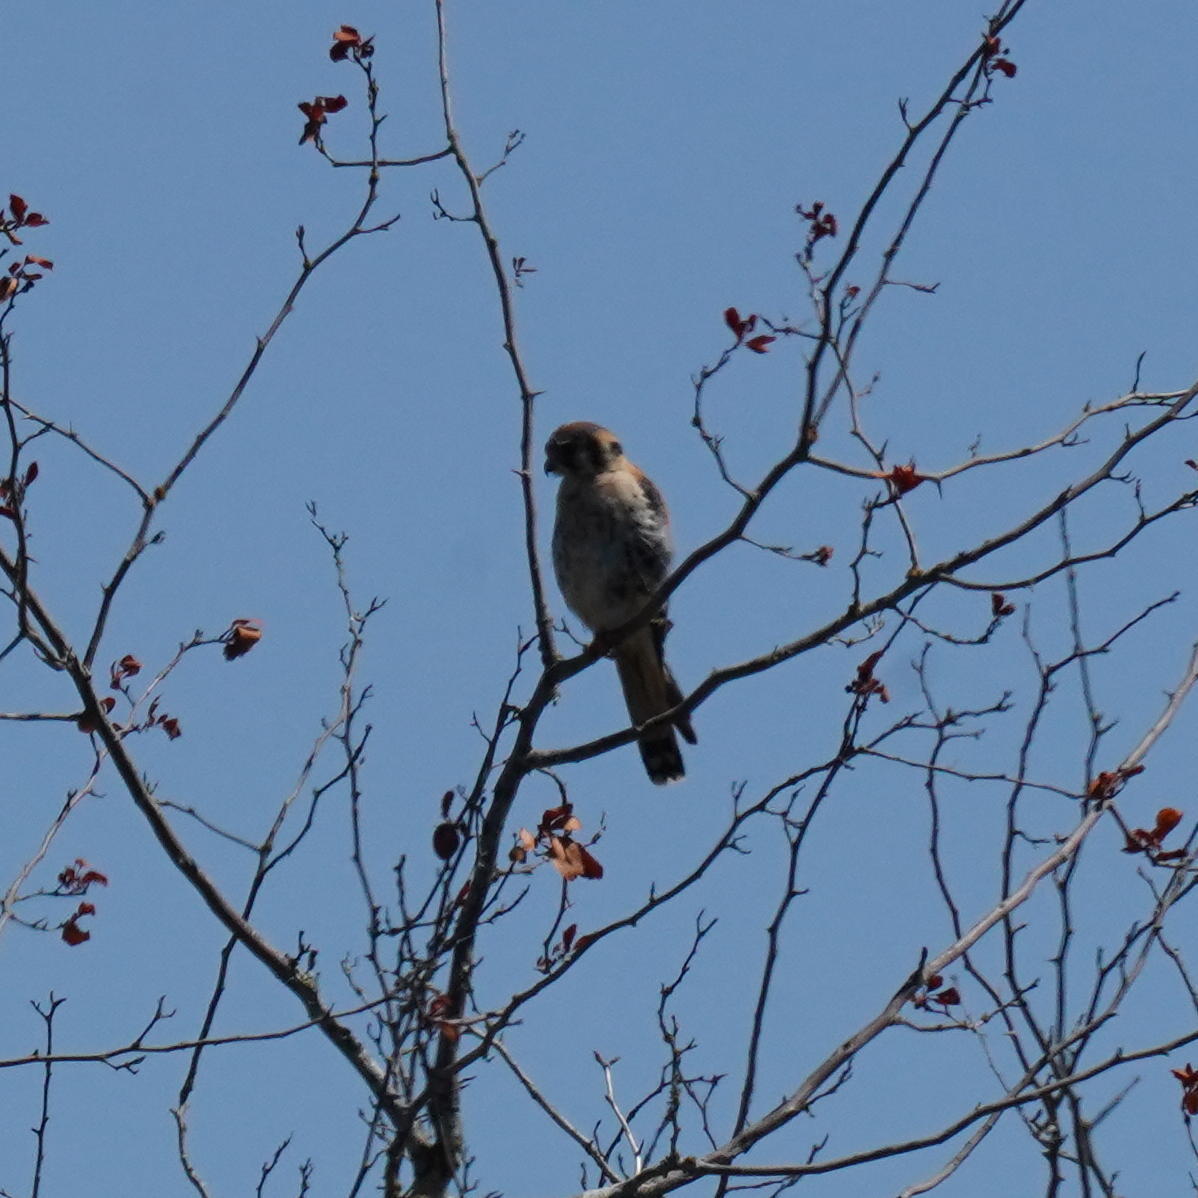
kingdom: Animalia
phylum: Chordata
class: Aves
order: Falconiformes
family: Falconidae
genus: Falco
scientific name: Falco sparverius
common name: American kestrel
